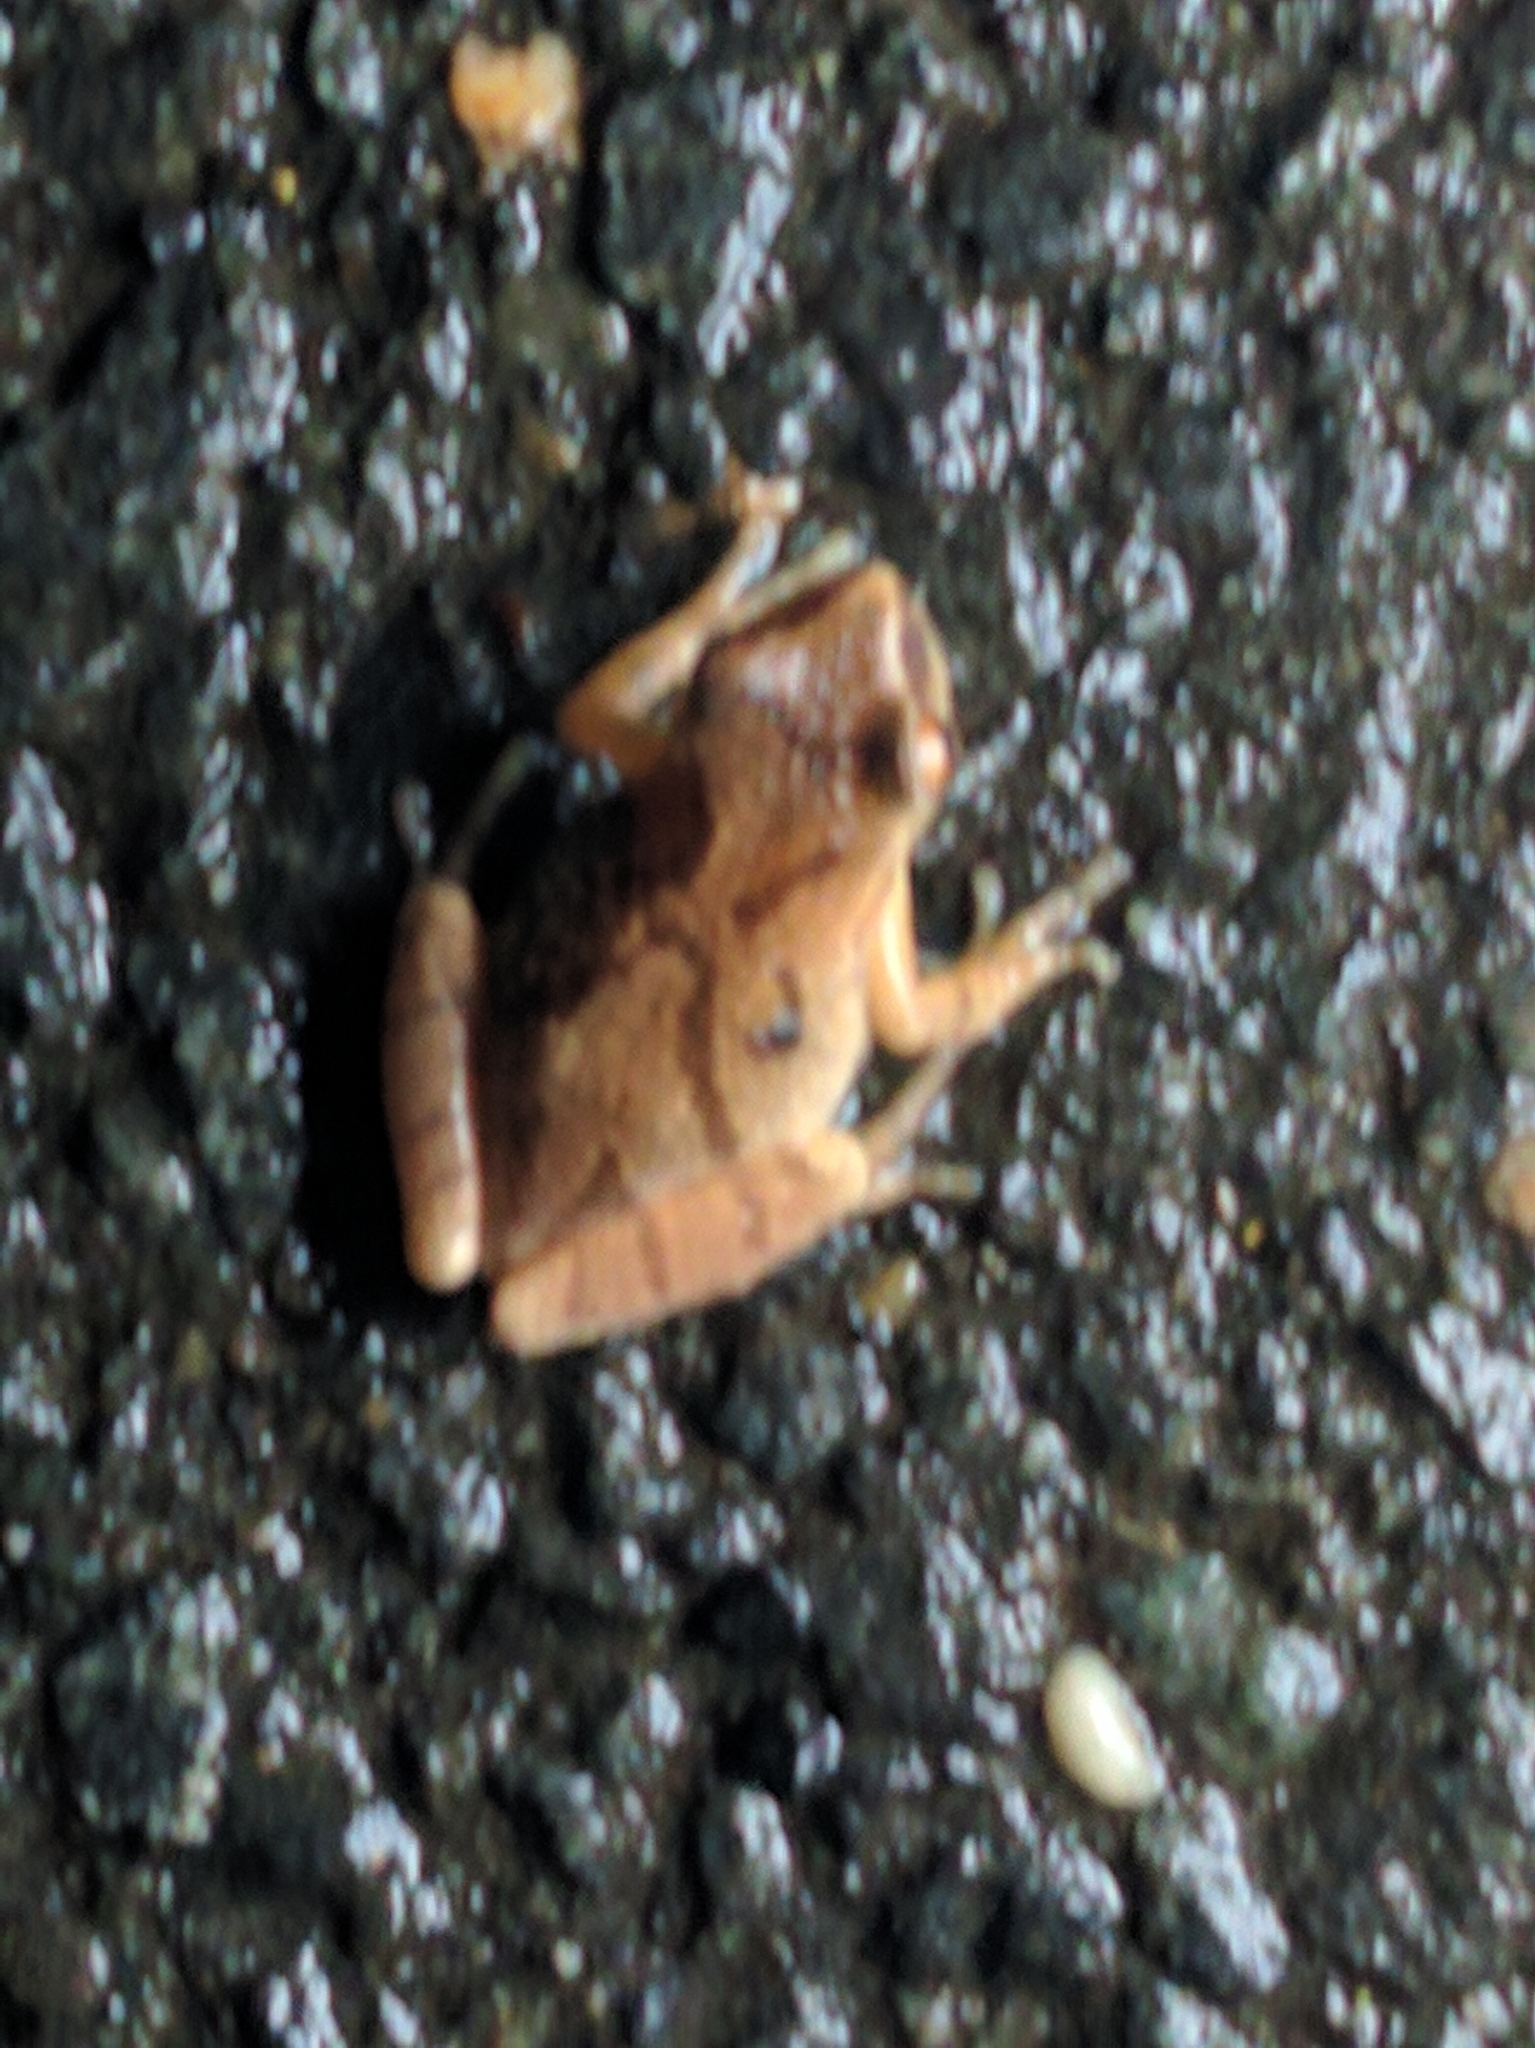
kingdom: Animalia
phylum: Chordata
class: Amphibia
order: Anura
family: Hylidae
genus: Pseudacris
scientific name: Pseudacris crucifer
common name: Spring peeper
